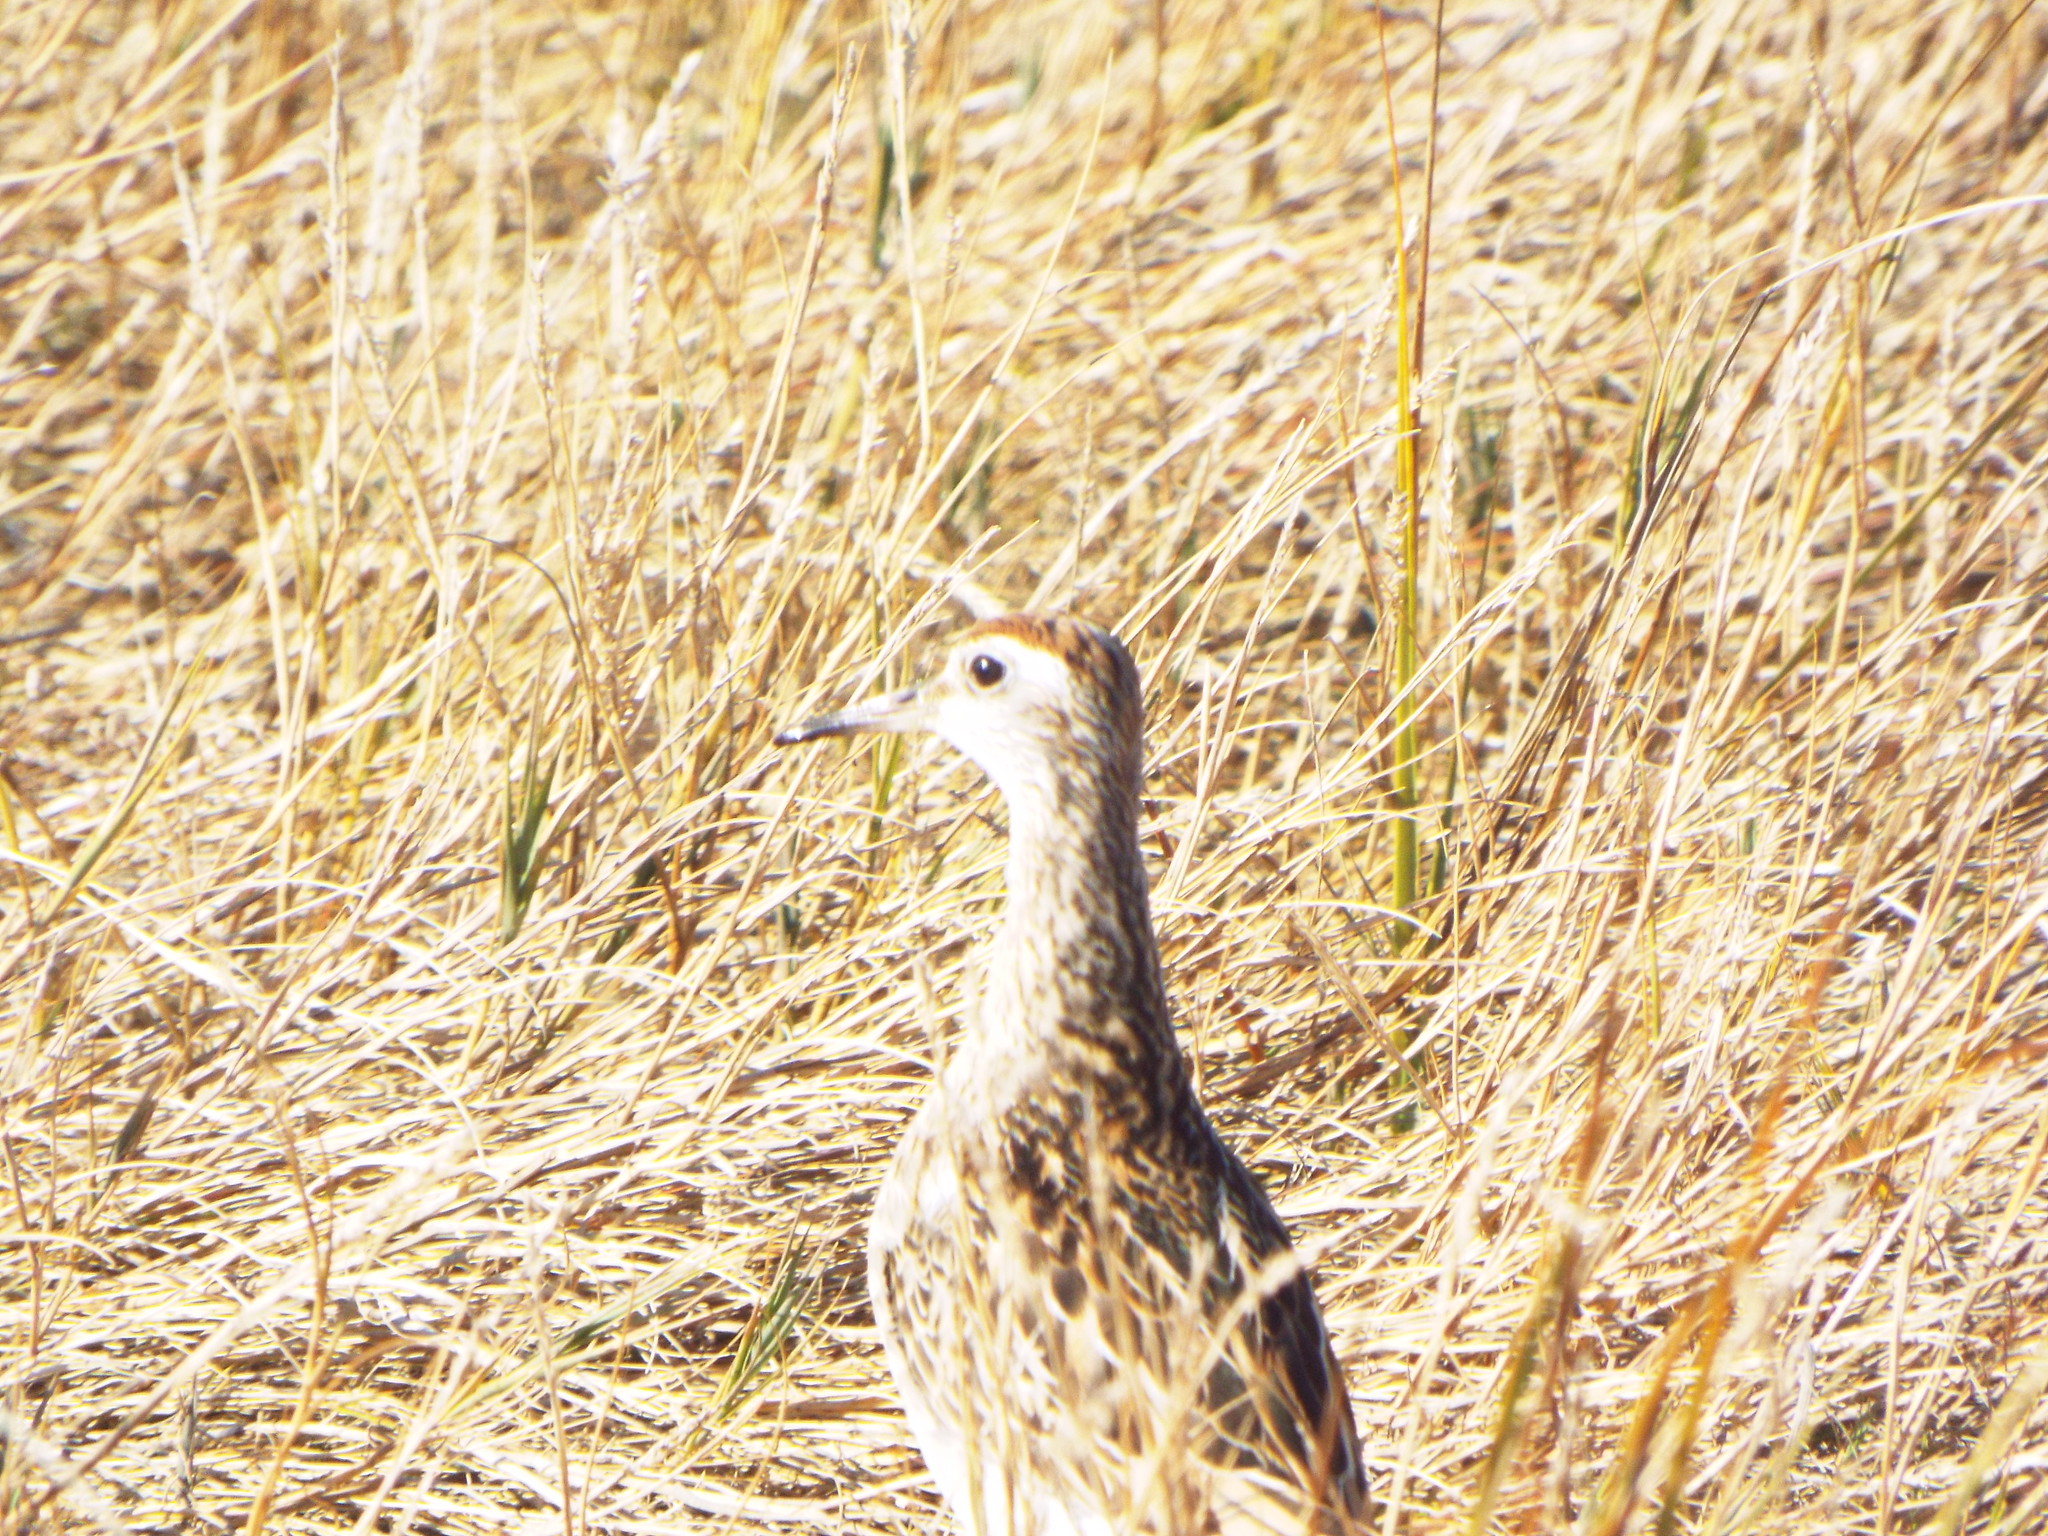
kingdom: Animalia
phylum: Chordata
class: Aves
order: Charadriiformes
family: Scolopacidae
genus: Calidris
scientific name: Calidris acuminata
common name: Sharp-tailed sandpiper
